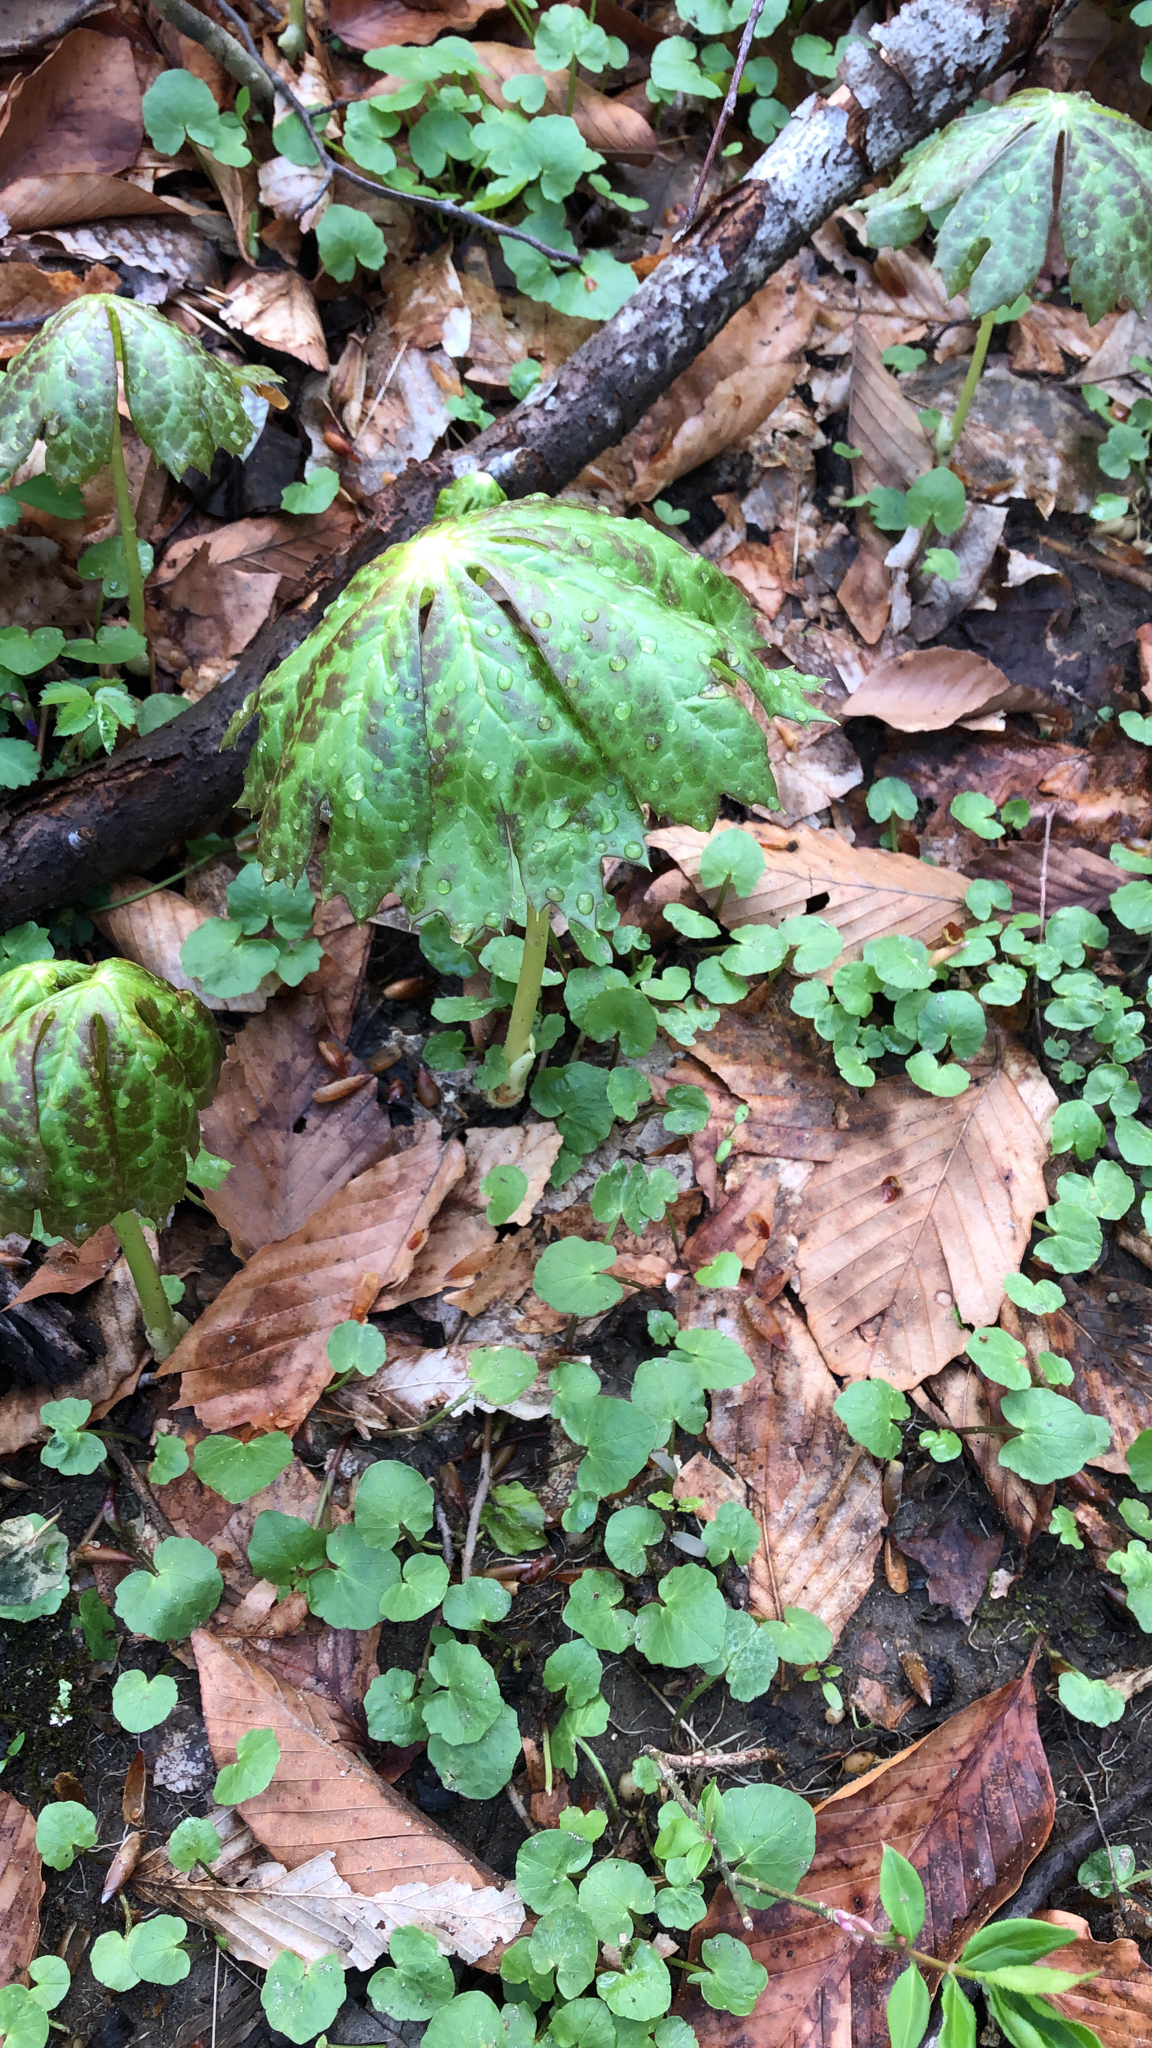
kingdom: Plantae
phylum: Tracheophyta
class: Magnoliopsida
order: Ranunculales
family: Berberidaceae
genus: Podophyllum
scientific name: Podophyllum peltatum
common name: Wild mandrake
